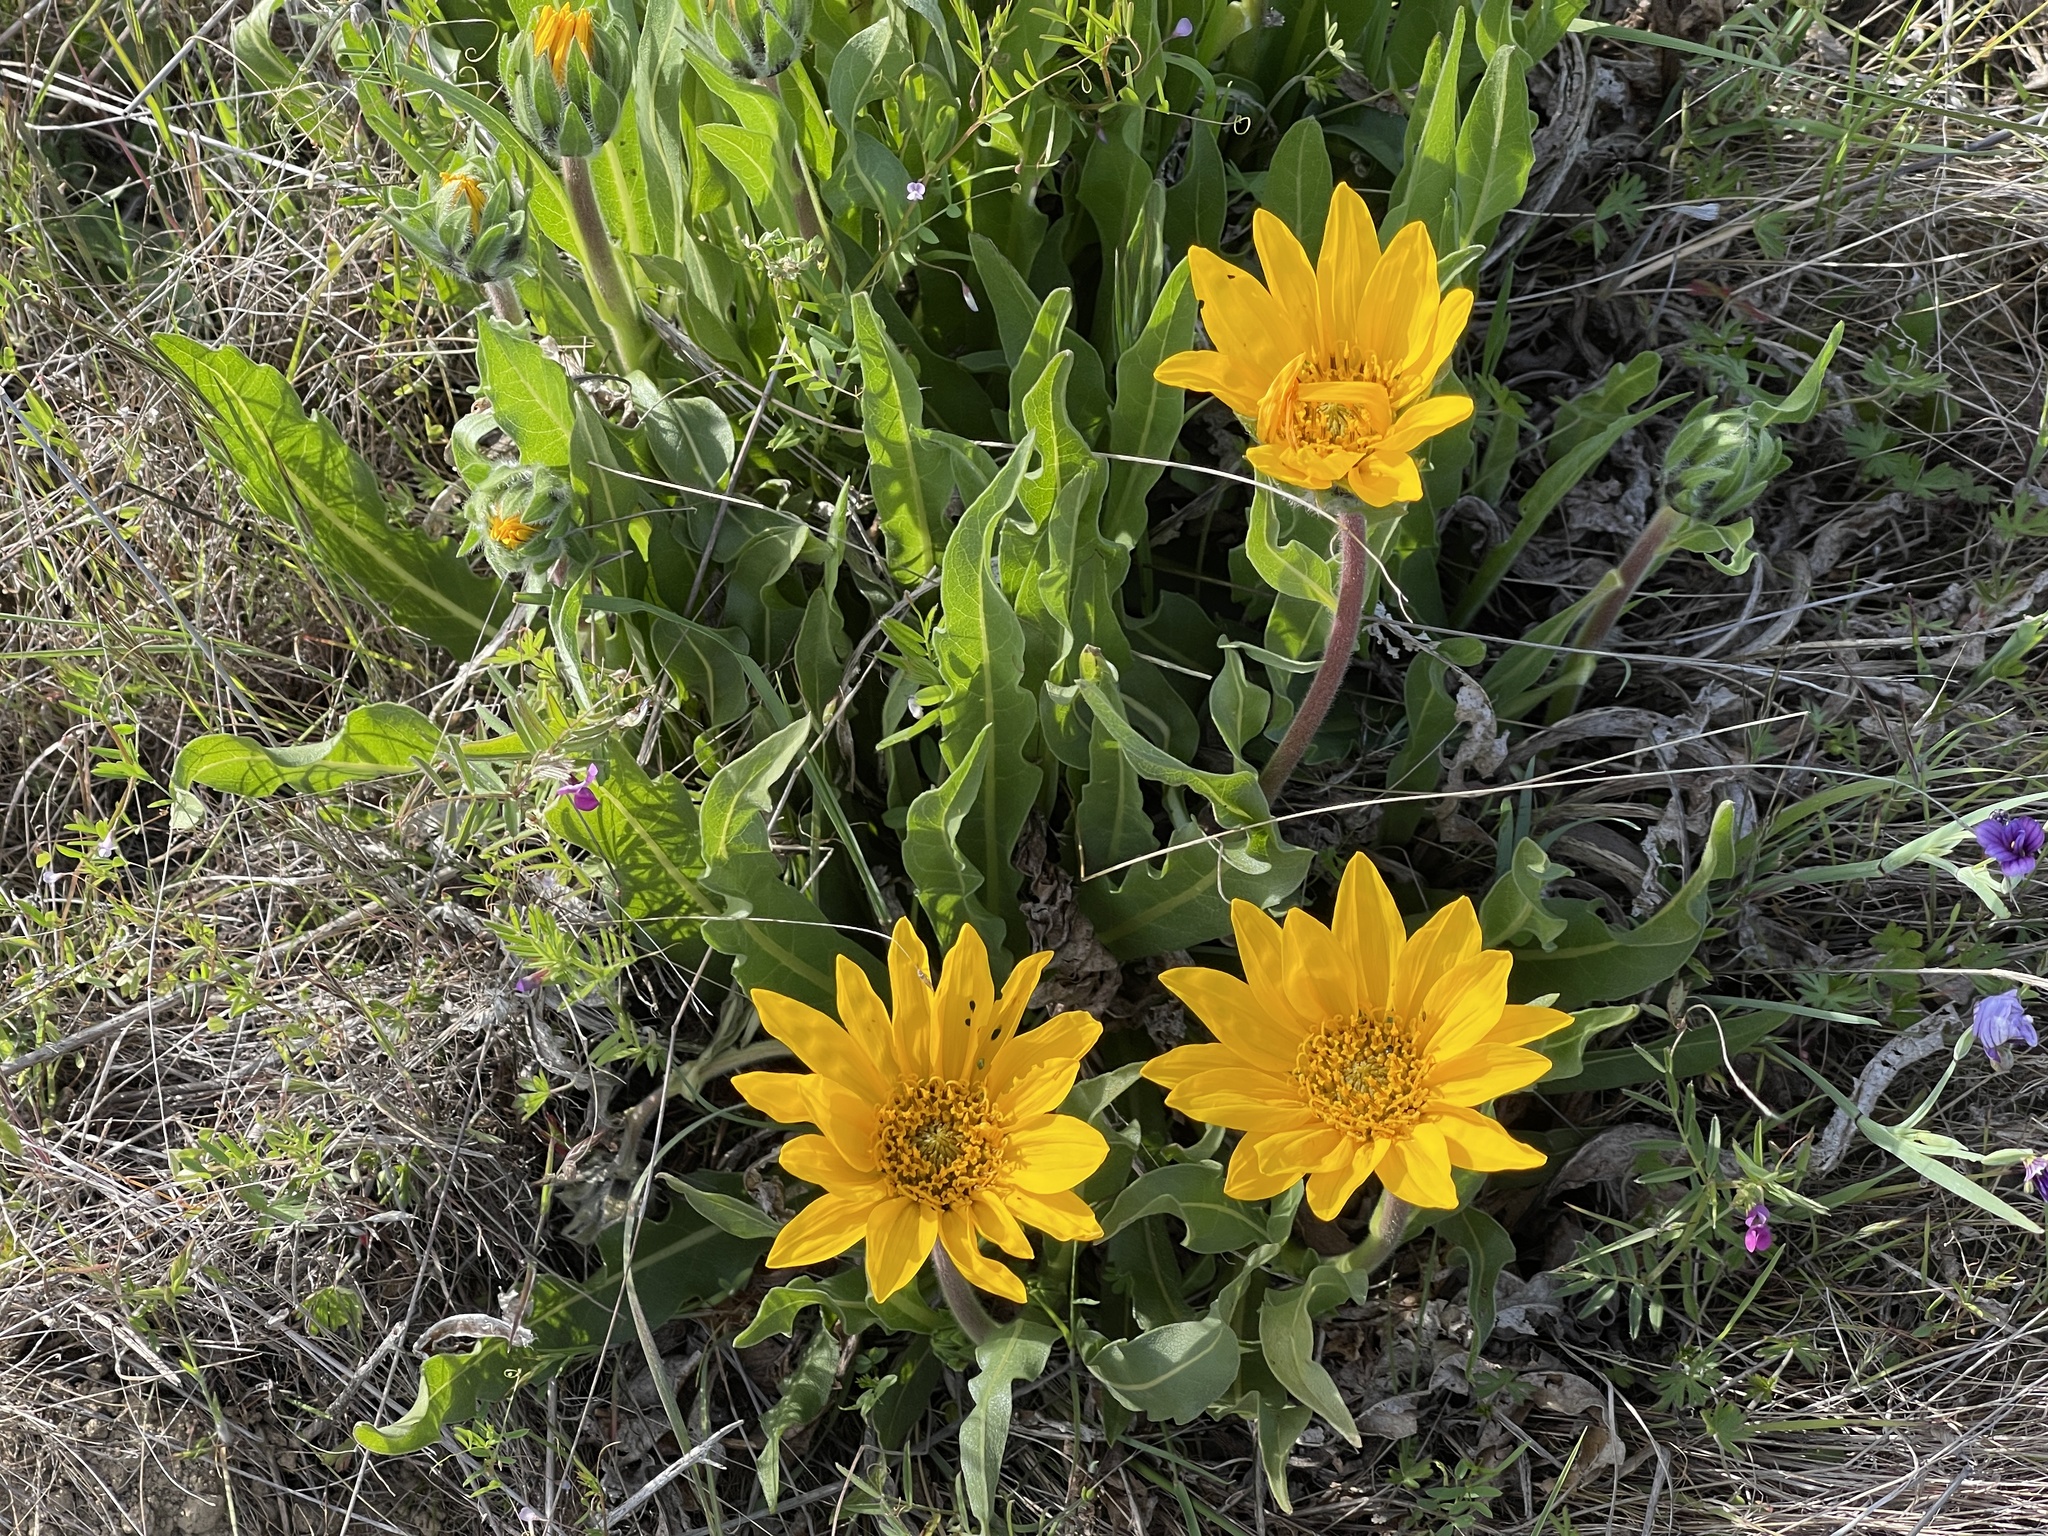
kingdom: Plantae
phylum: Tracheophyta
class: Magnoliopsida
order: Asterales
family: Asteraceae
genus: Wyethia
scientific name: Wyethia angustifolia
